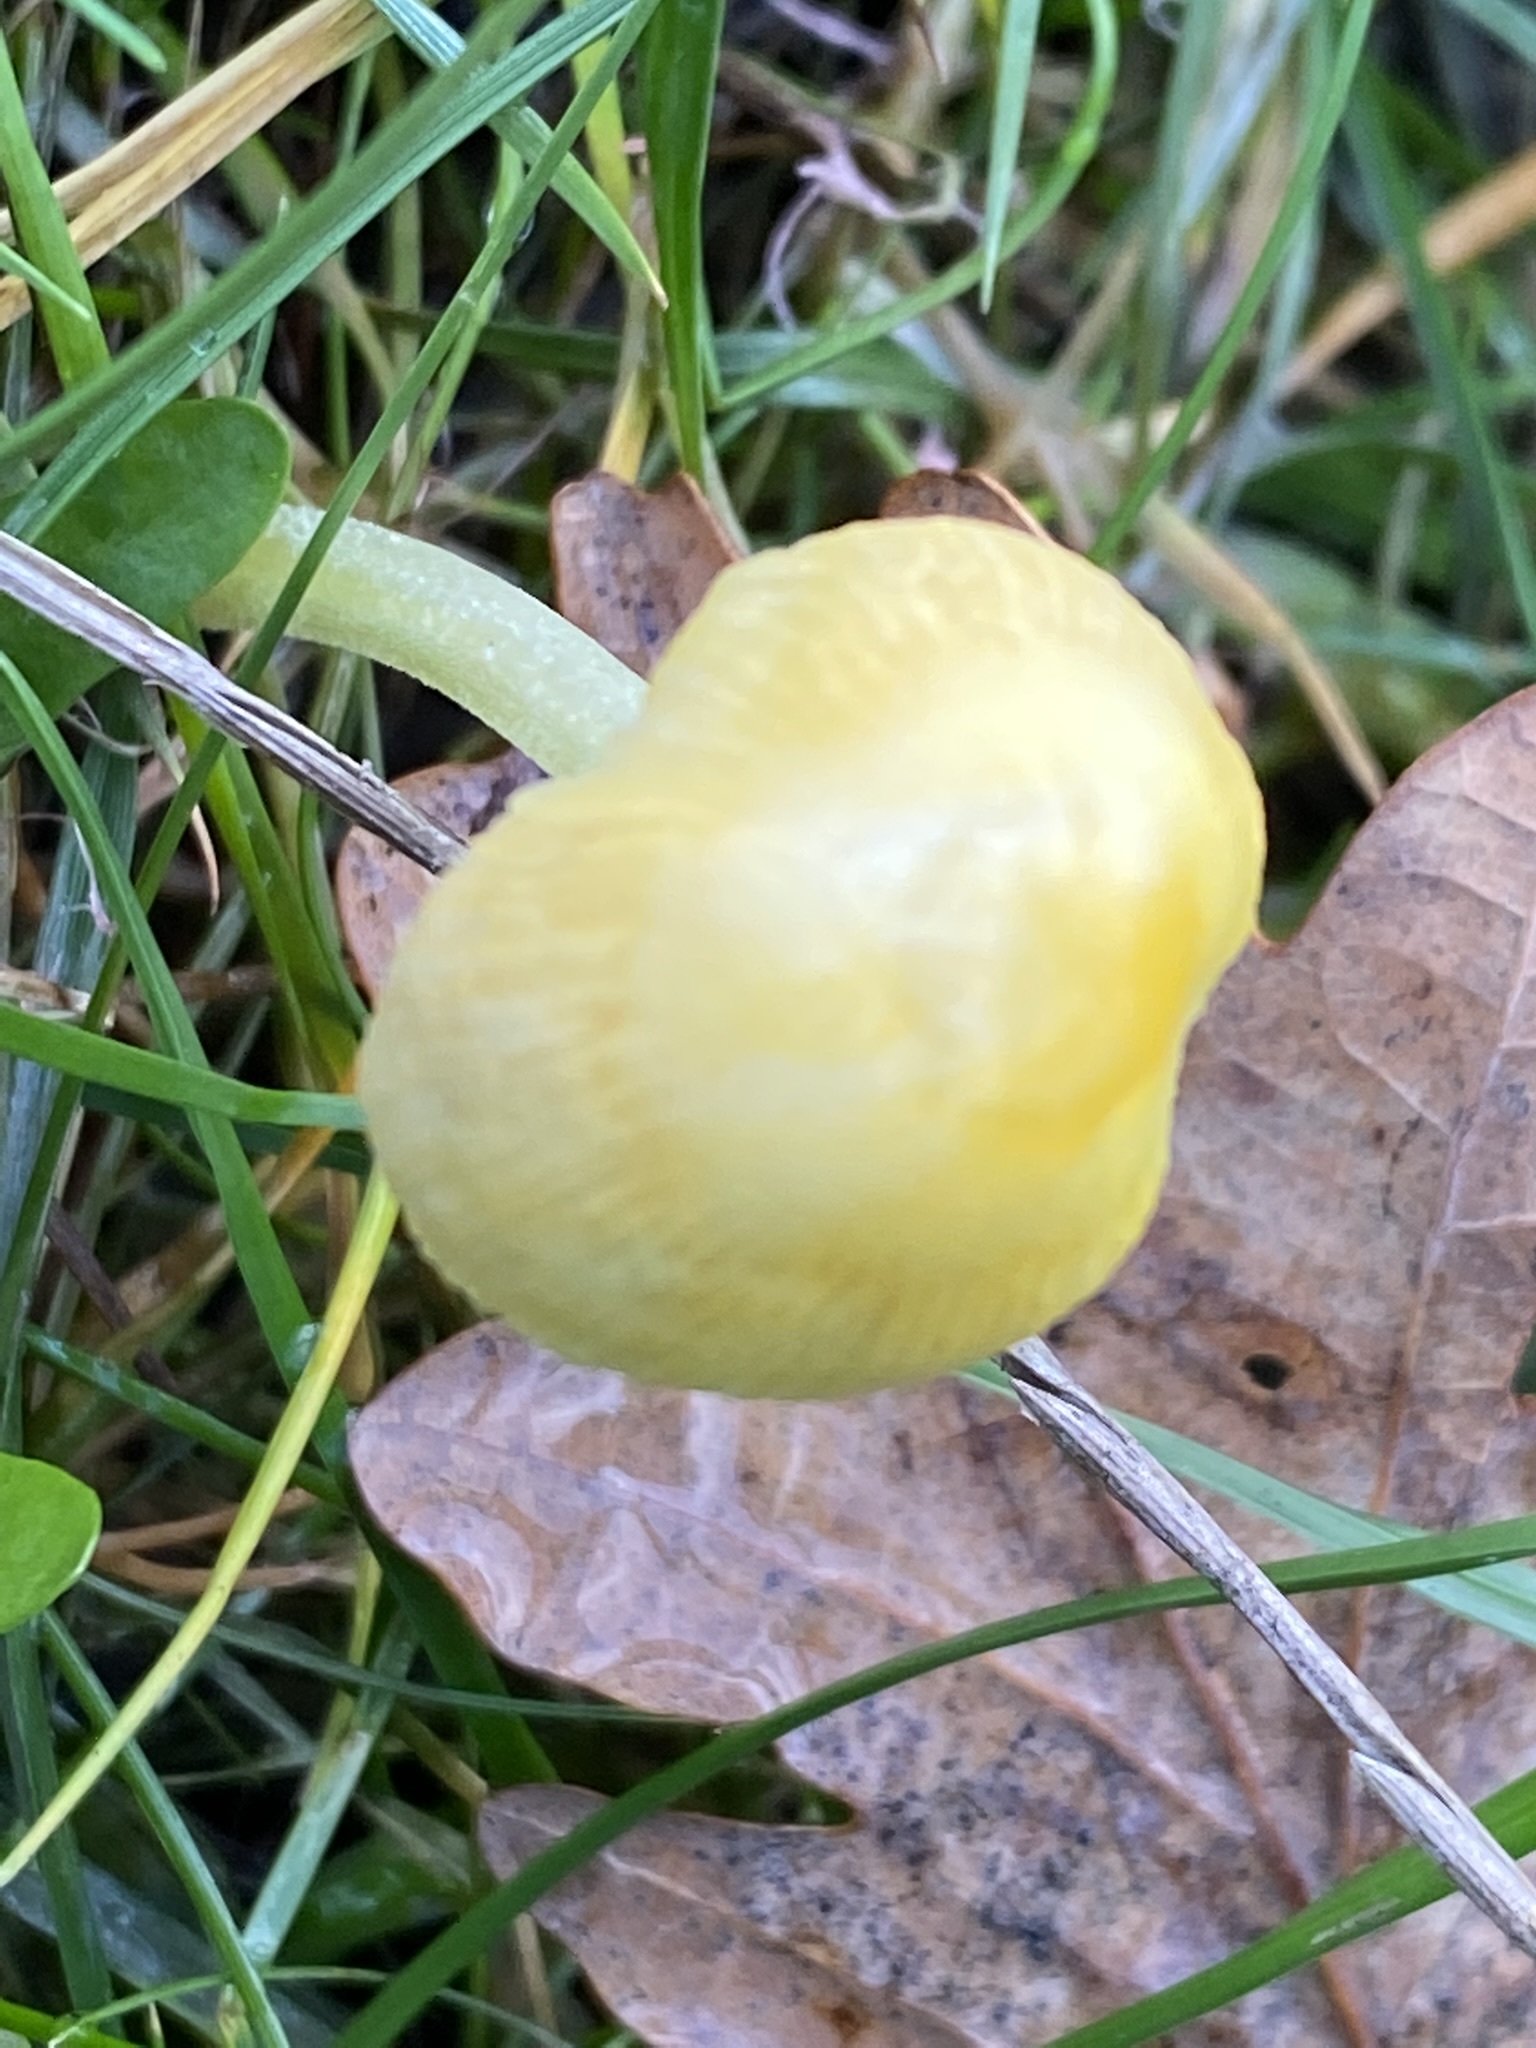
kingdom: Fungi
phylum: Basidiomycota
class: Agaricomycetes
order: Agaricales
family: Bolbitiaceae
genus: Bolbitius
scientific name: Bolbitius titubans
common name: Yellow fieldcap
